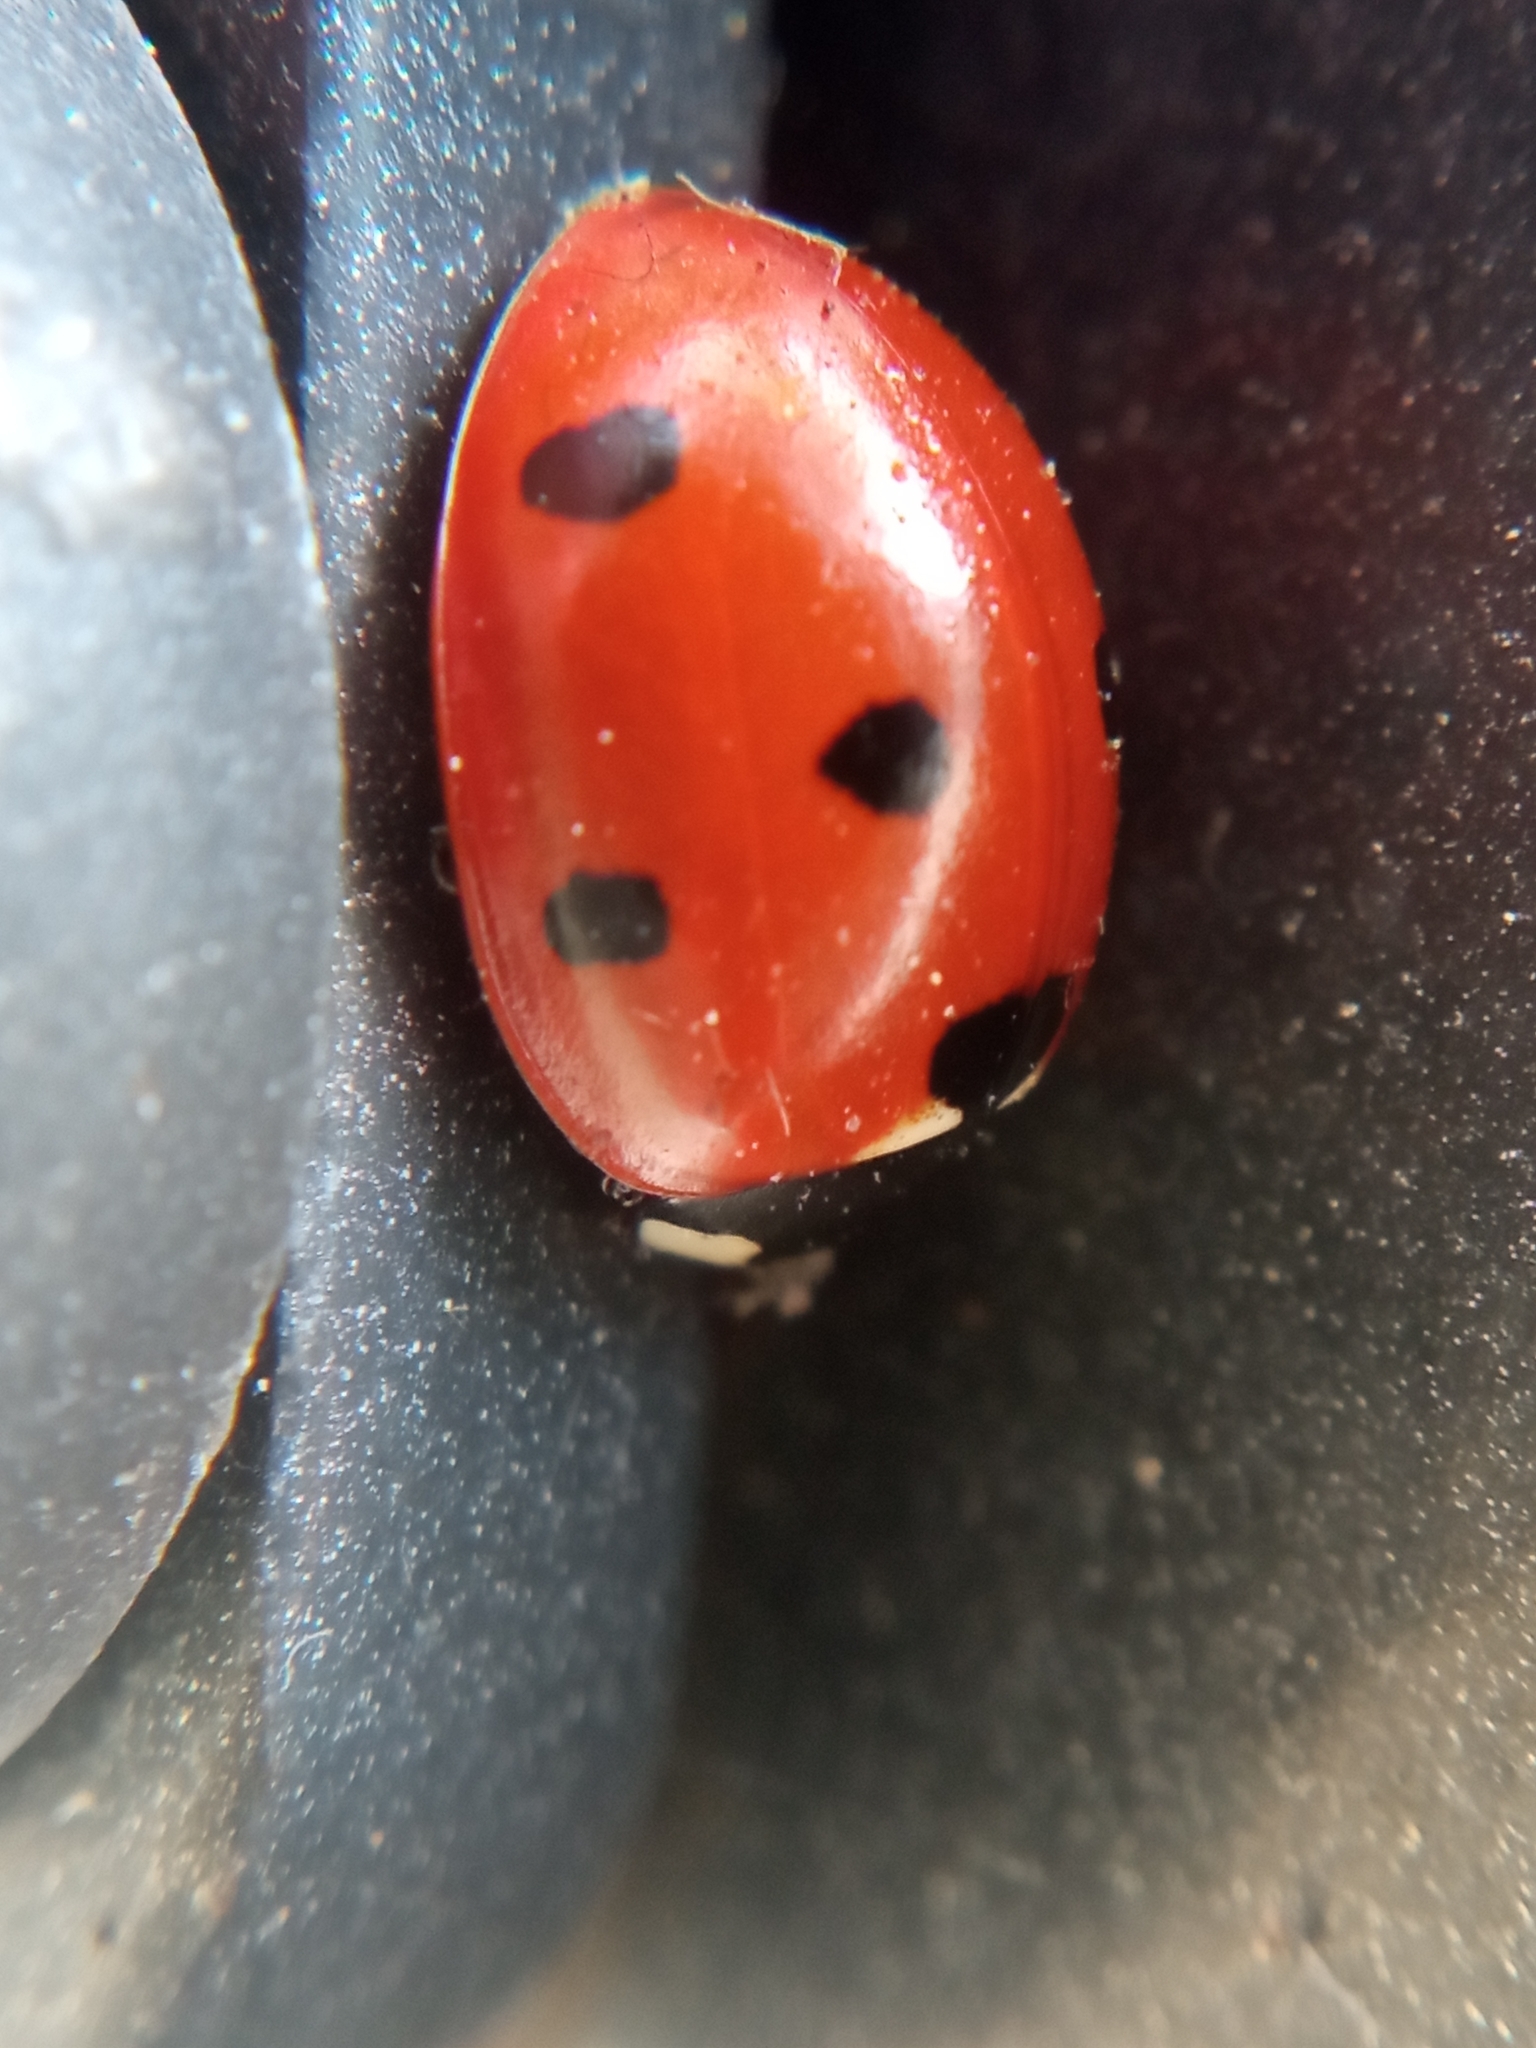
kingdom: Animalia
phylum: Arthropoda
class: Insecta
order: Coleoptera
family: Coccinellidae
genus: Coccinella
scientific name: Coccinella septempunctata
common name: Sevenspotted lady beetle
